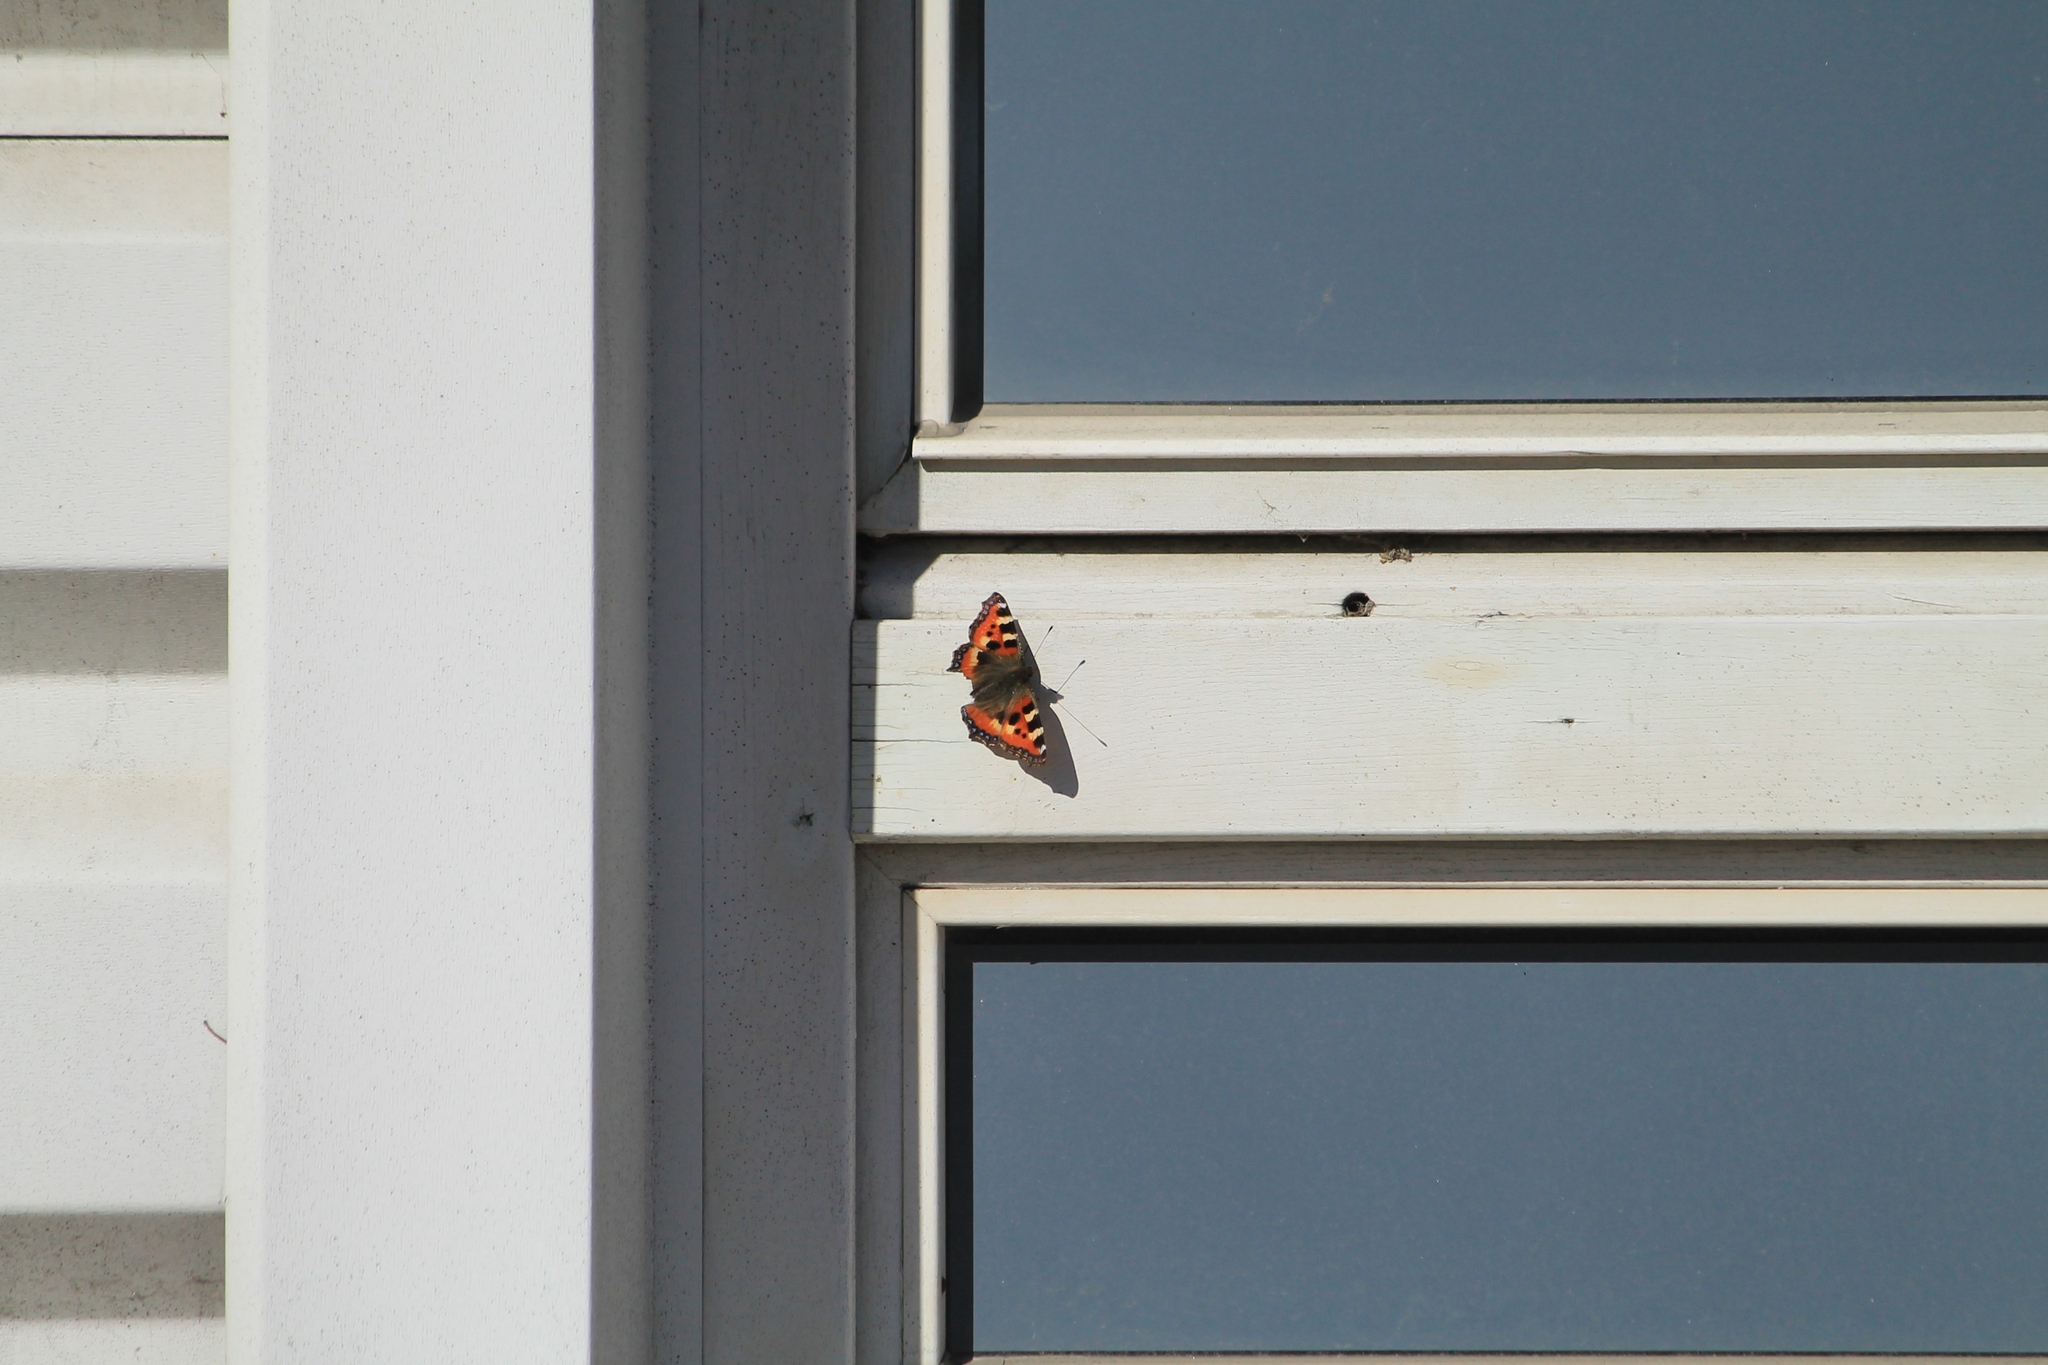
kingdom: Animalia
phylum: Arthropoda
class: Insecta
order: Lepidoptera
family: Nymphalidae
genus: Aglais
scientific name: Aglais urticae
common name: Small tortoiseshell
